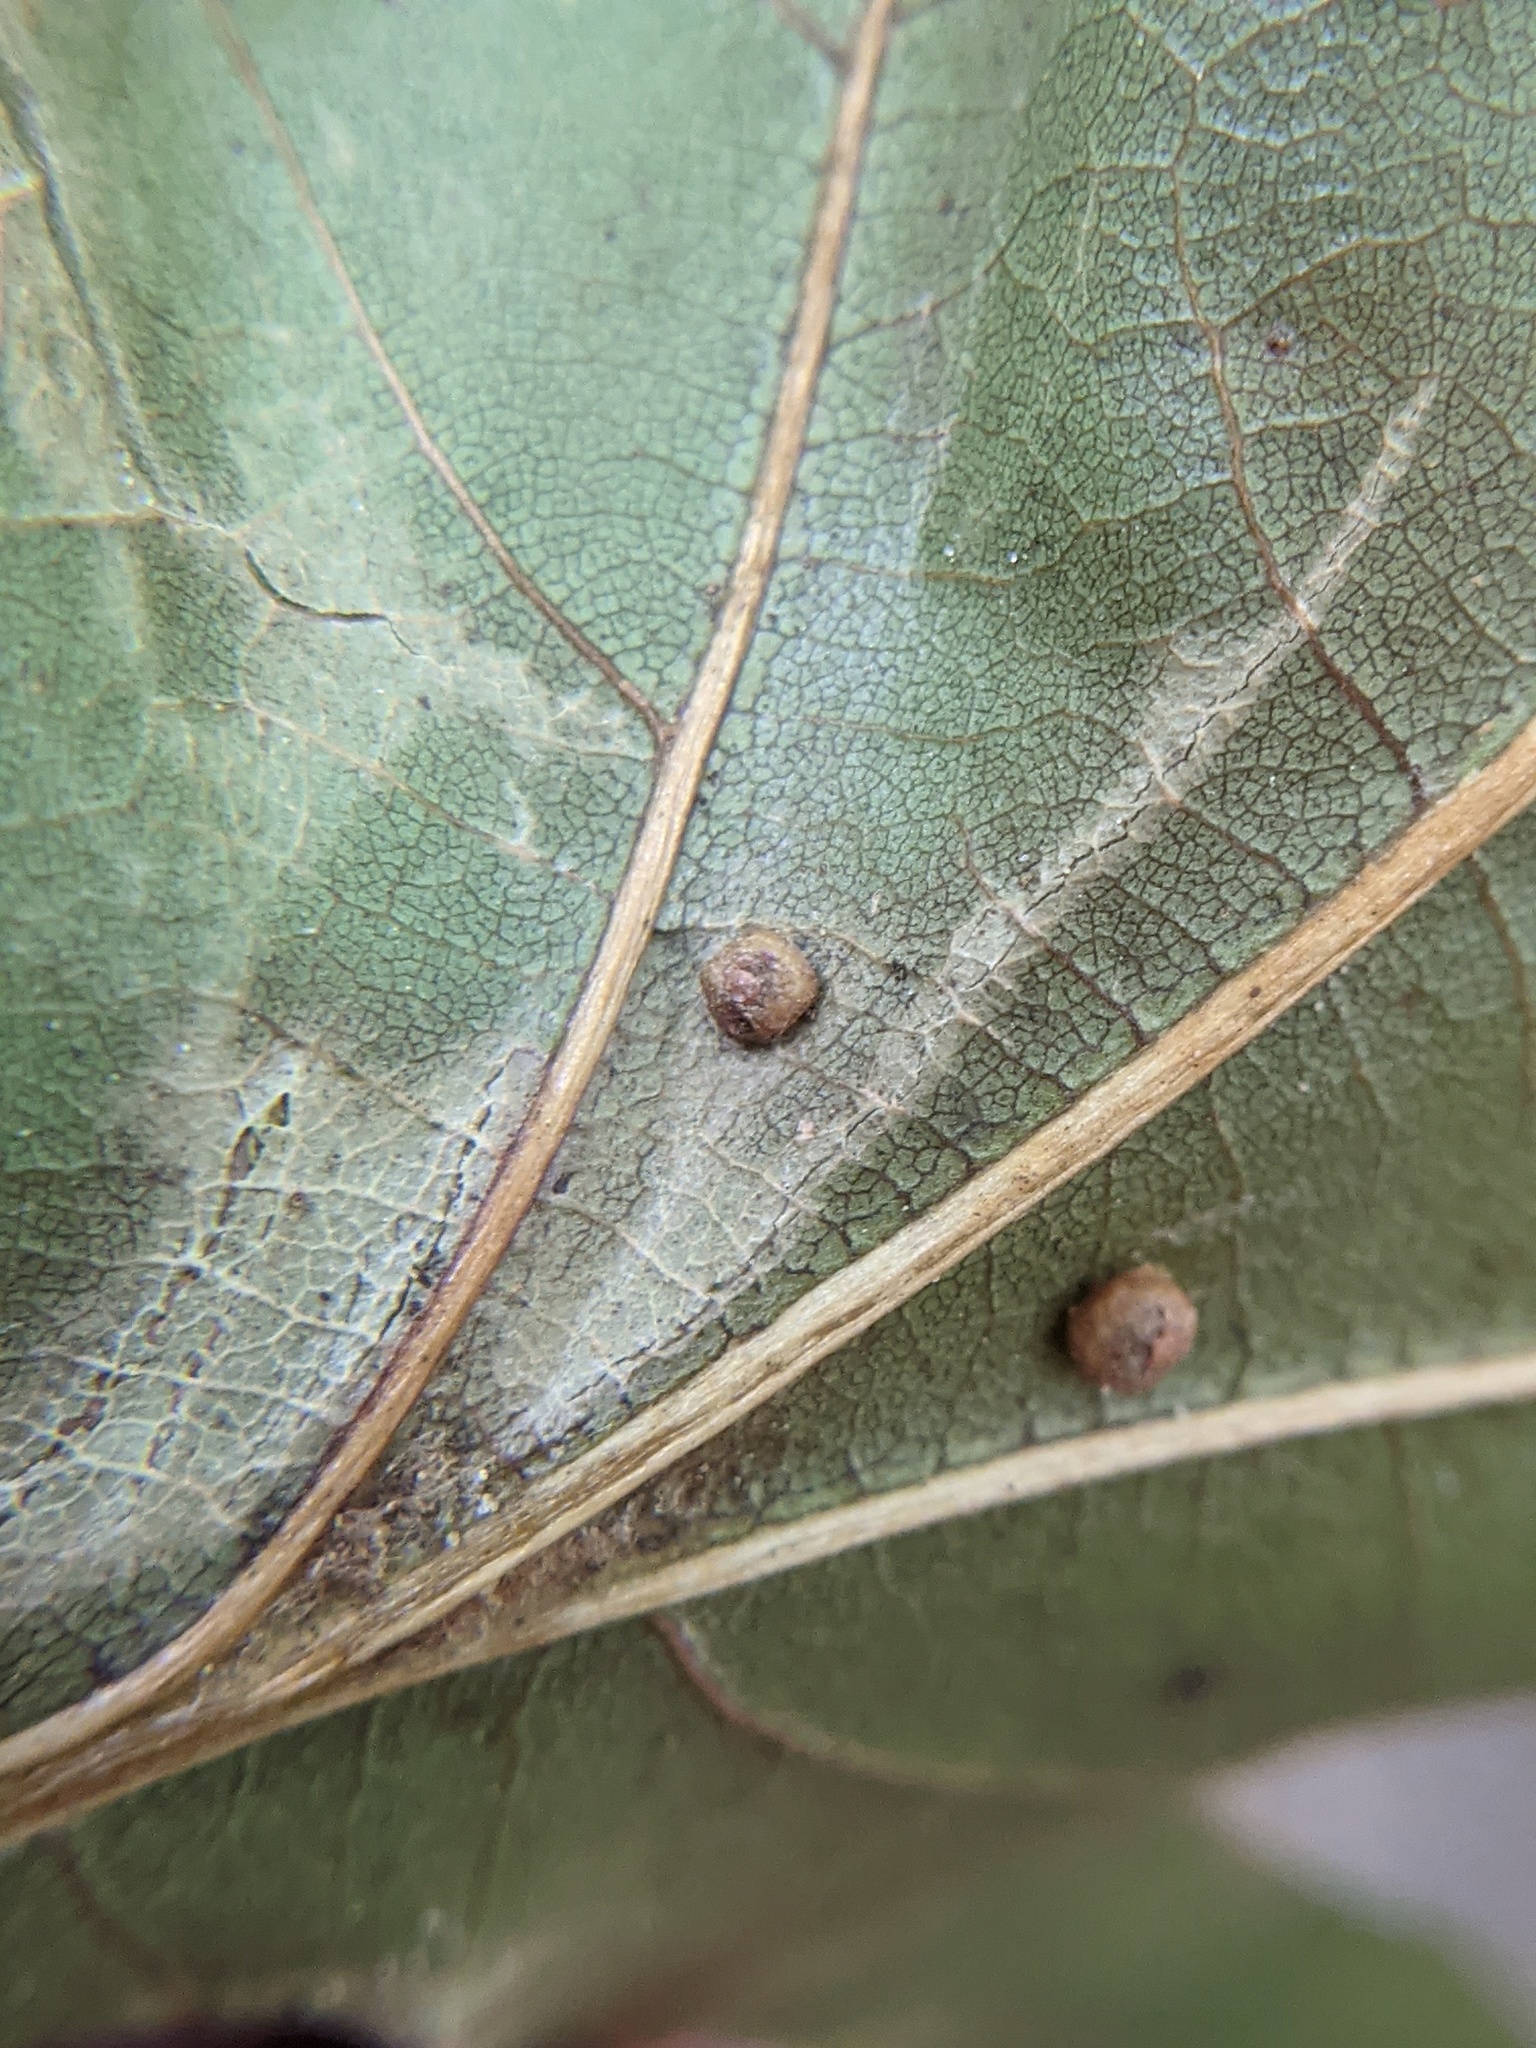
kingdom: Animalia
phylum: Arthropoda
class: Insecta
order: Diptera
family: Cecidomyiidae
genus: Polystepha
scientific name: Polystepha globosa
